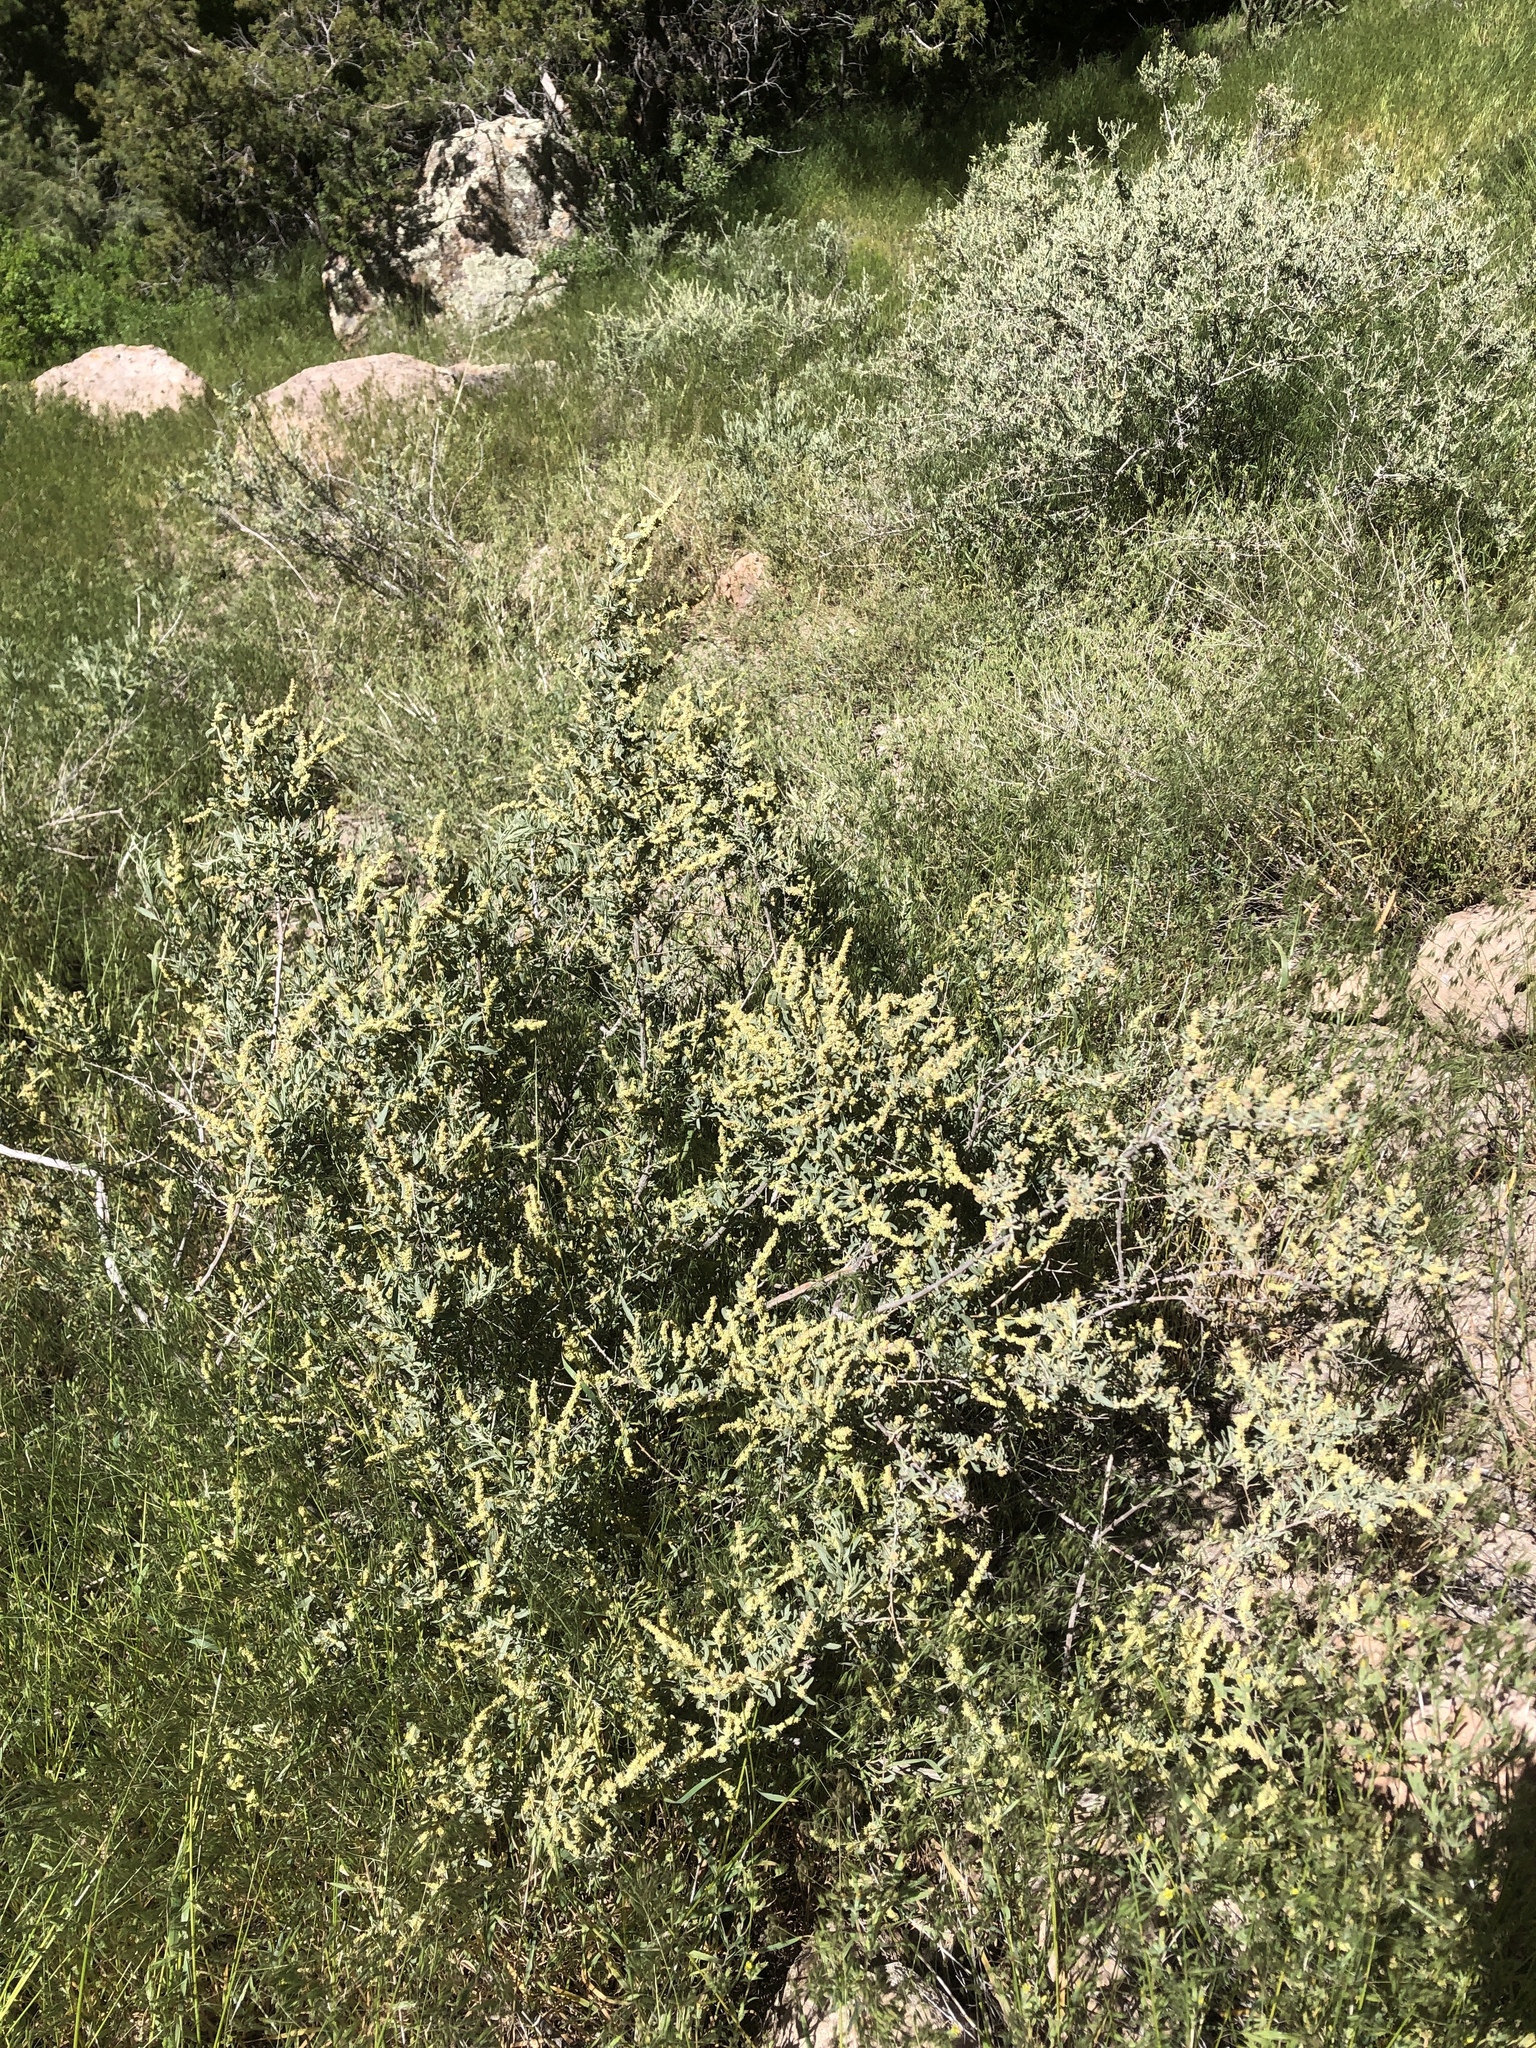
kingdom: Plantae
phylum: Tracheophyta
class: Magnoliopsida
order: Caryophyllales
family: Amaranthaceae
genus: Atriplex
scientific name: Atriplex canescens
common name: Four-wing saltbush
